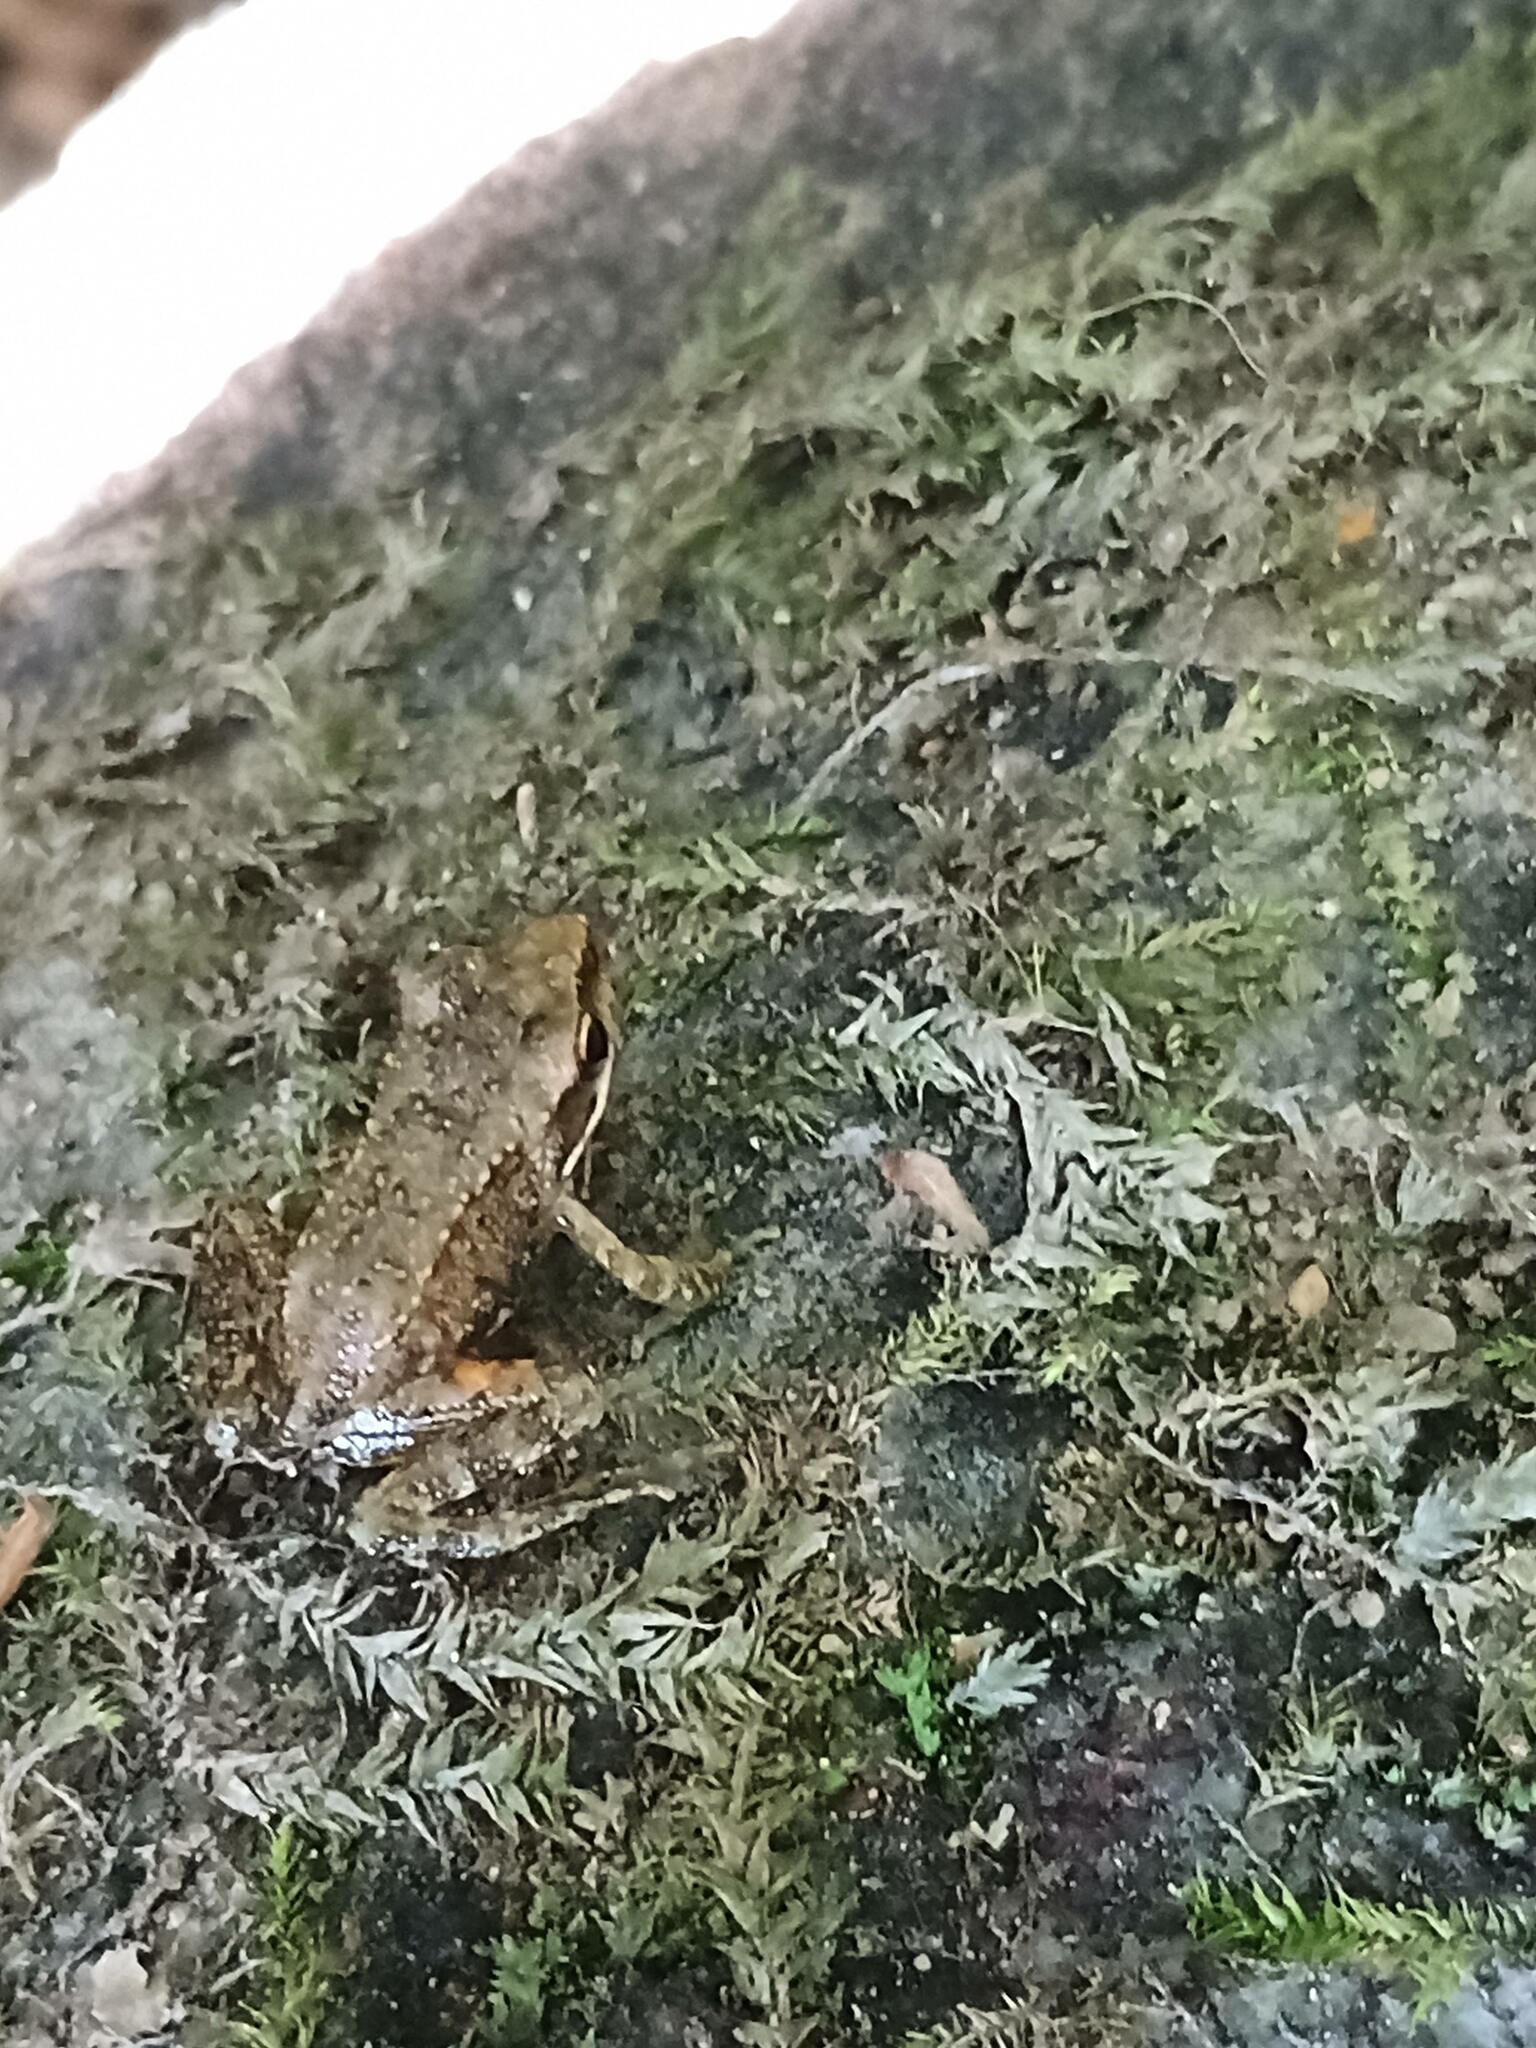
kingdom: Animalia
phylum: Chordata
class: Amphibia
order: Anura
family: Ranidae
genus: Rana
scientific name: Rana iberica
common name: Iberian frog
